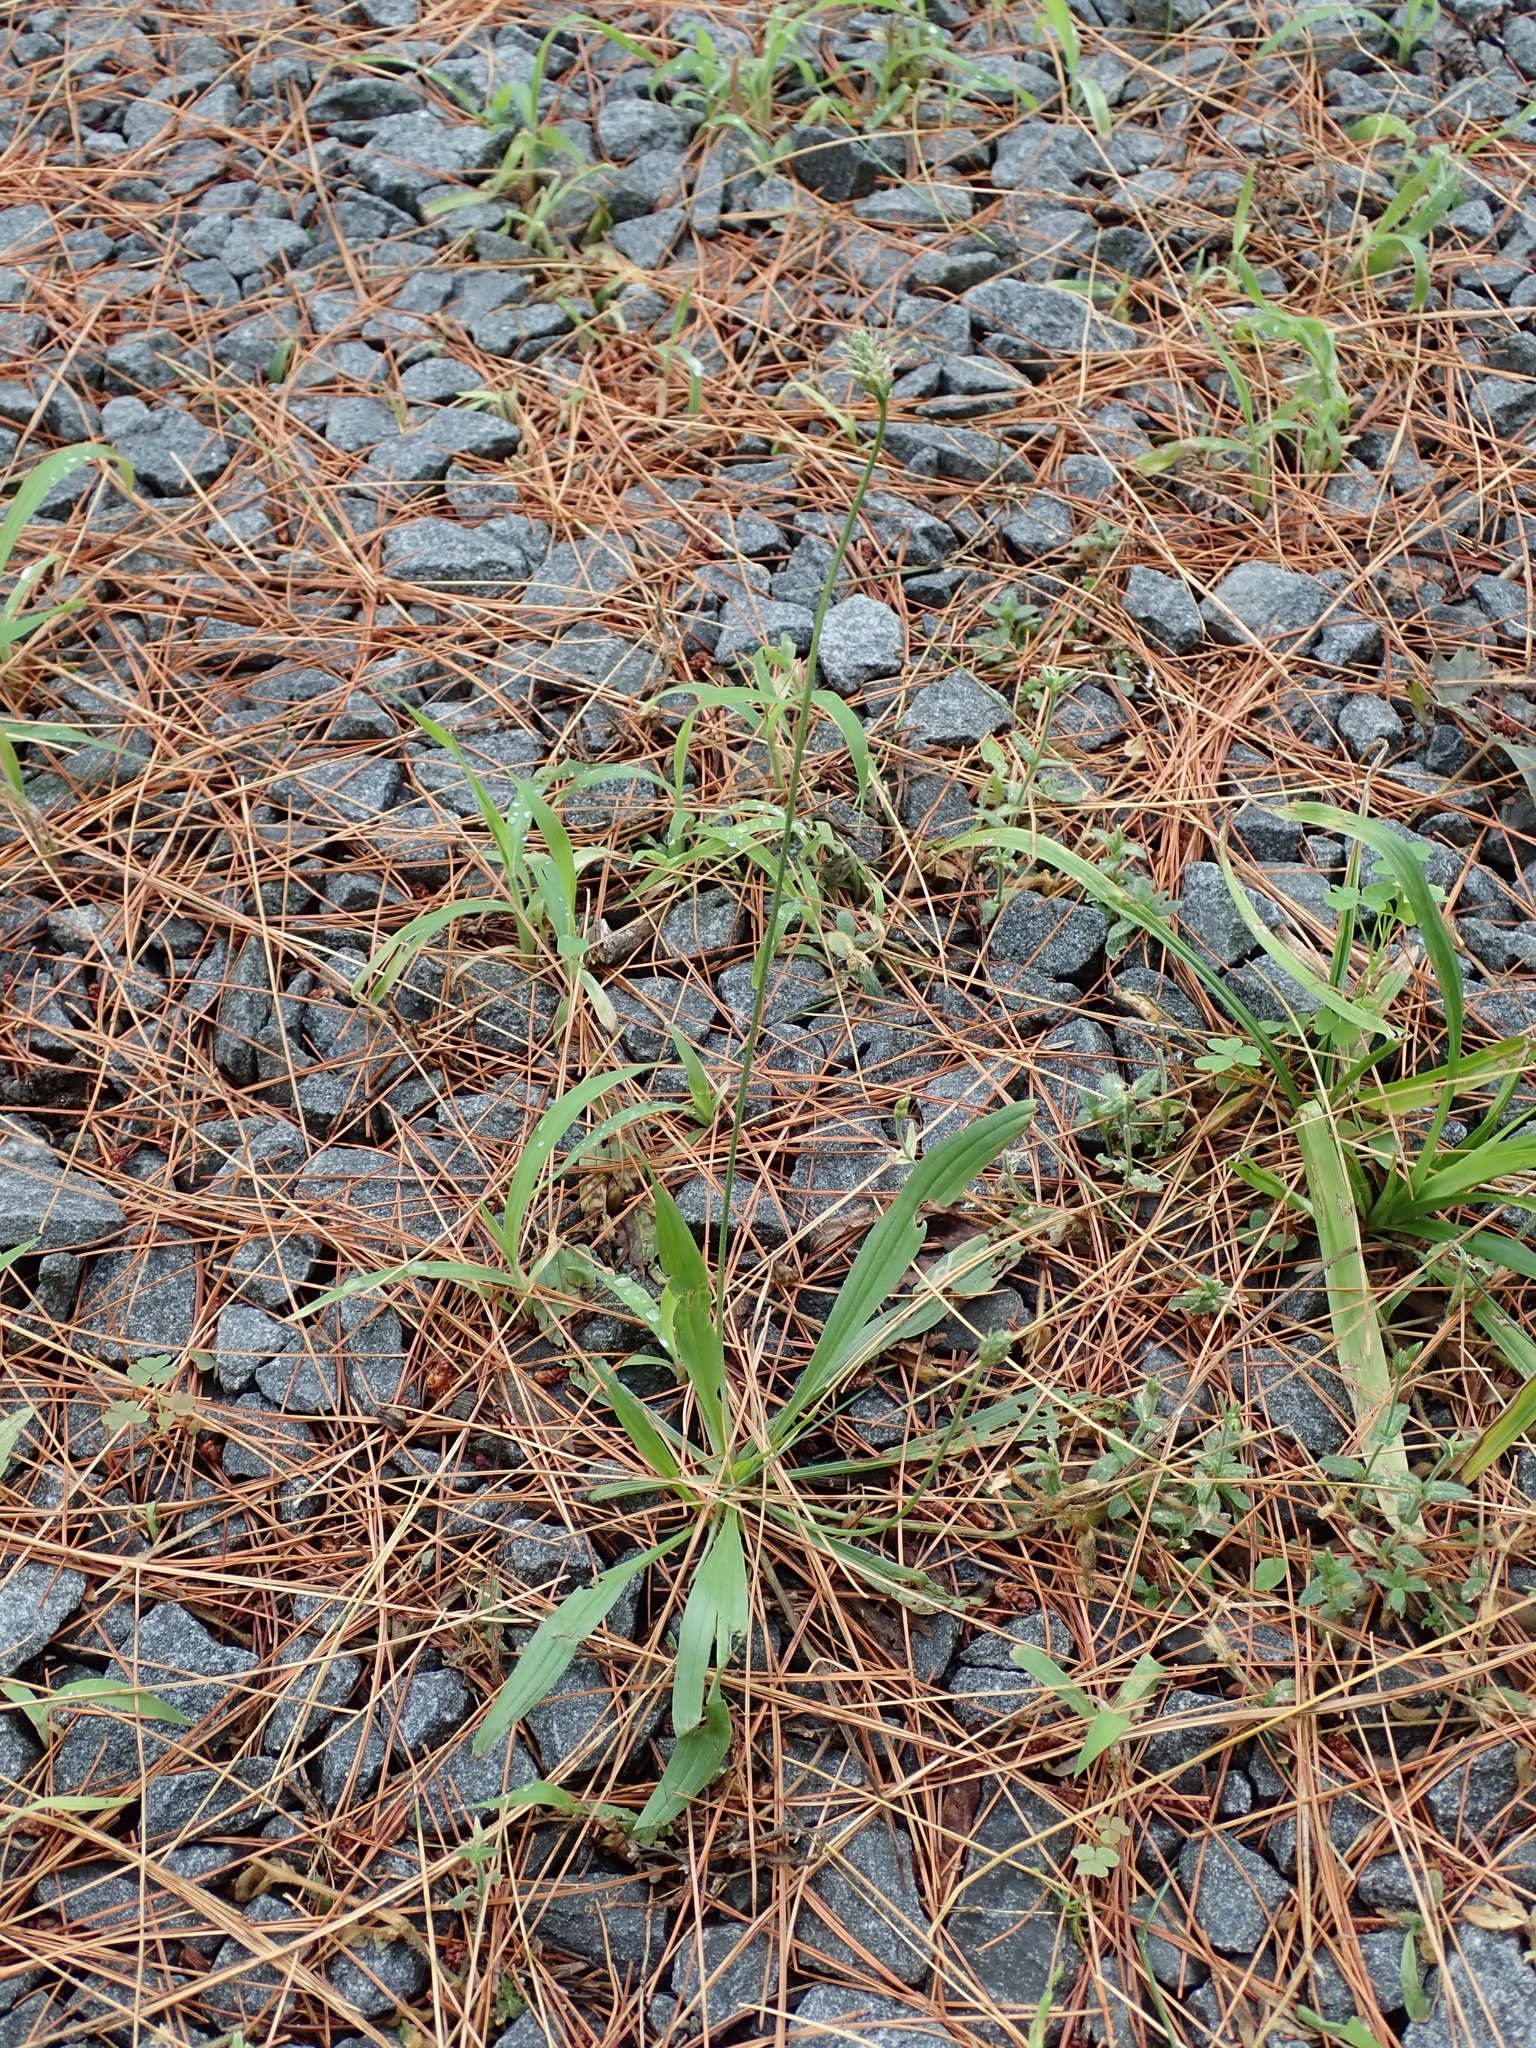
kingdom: Plantae
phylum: Tracheophyta
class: Magnoliopsida
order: Lamiales
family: Plantaginaceae
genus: Plantago
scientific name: Plantago lanceolata
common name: Ribwort plantain
